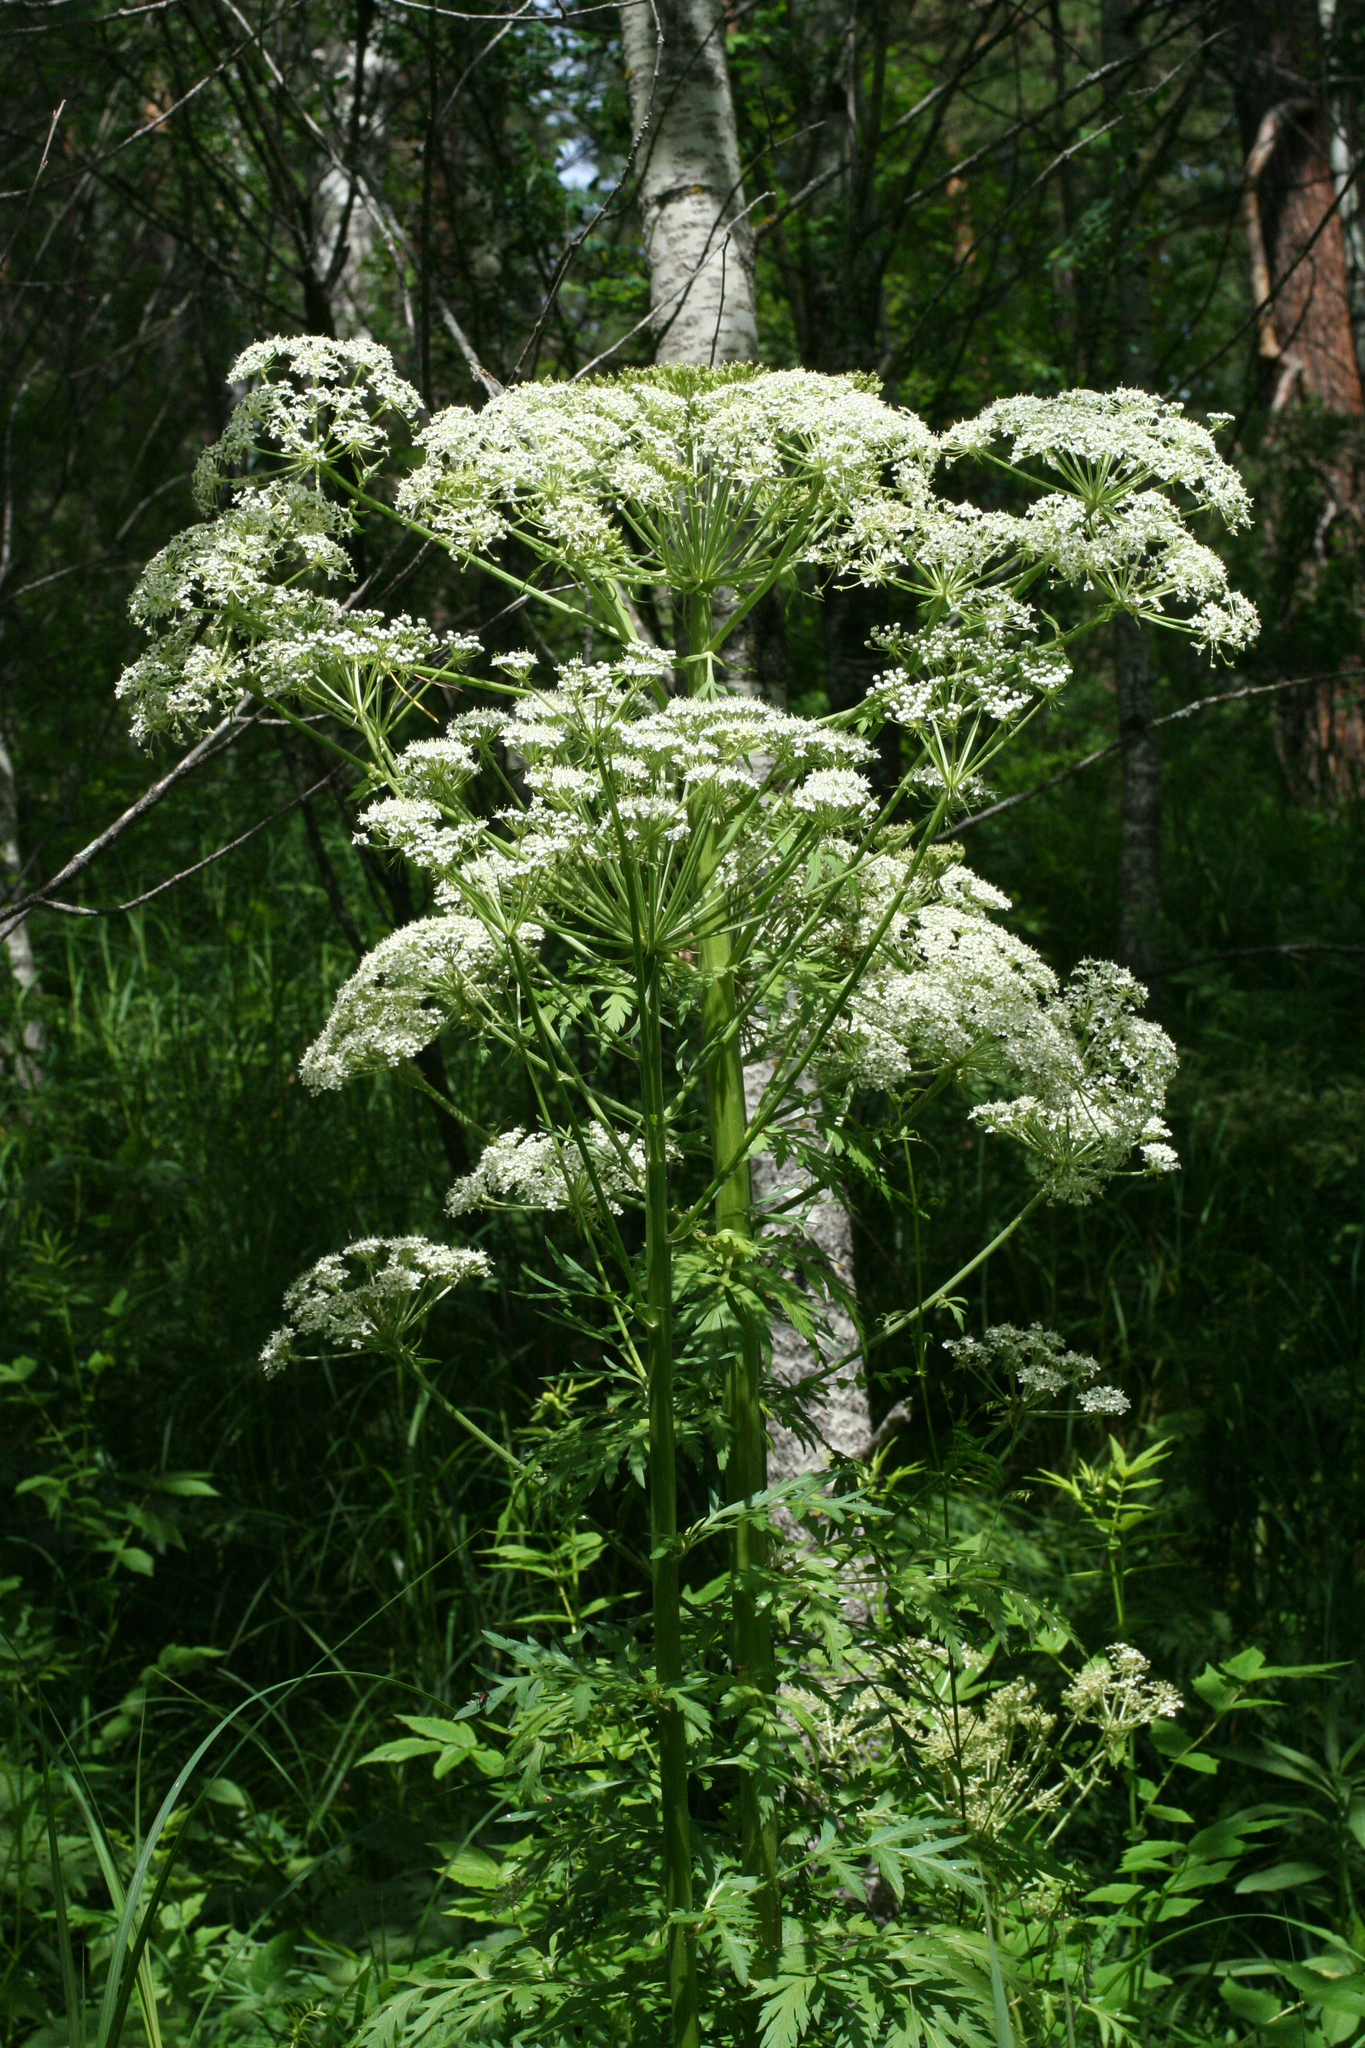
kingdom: Plantae
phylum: Tracheophyta
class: Magnoliopsida
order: Apiales
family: Apiaceae
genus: Pleurospermum
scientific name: Pleurospermum uralense
